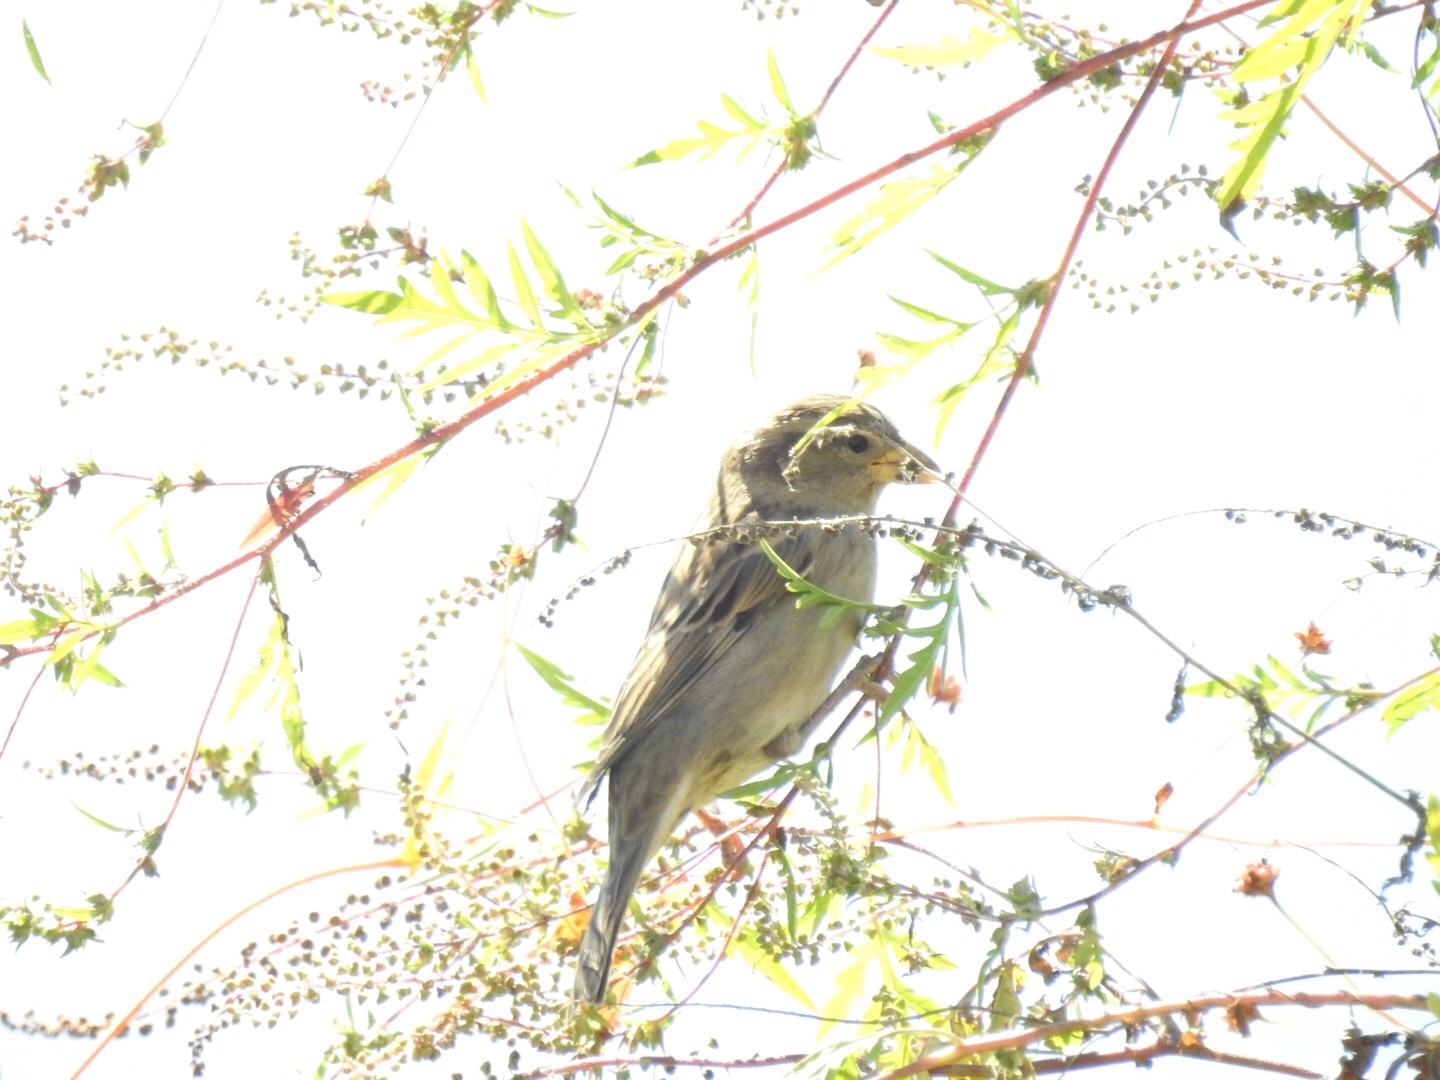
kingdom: Animalia
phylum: Chordata
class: Aves
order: Passeriformes
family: Passeridae
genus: Passer
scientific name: Passer domesticus
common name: House sparrow
